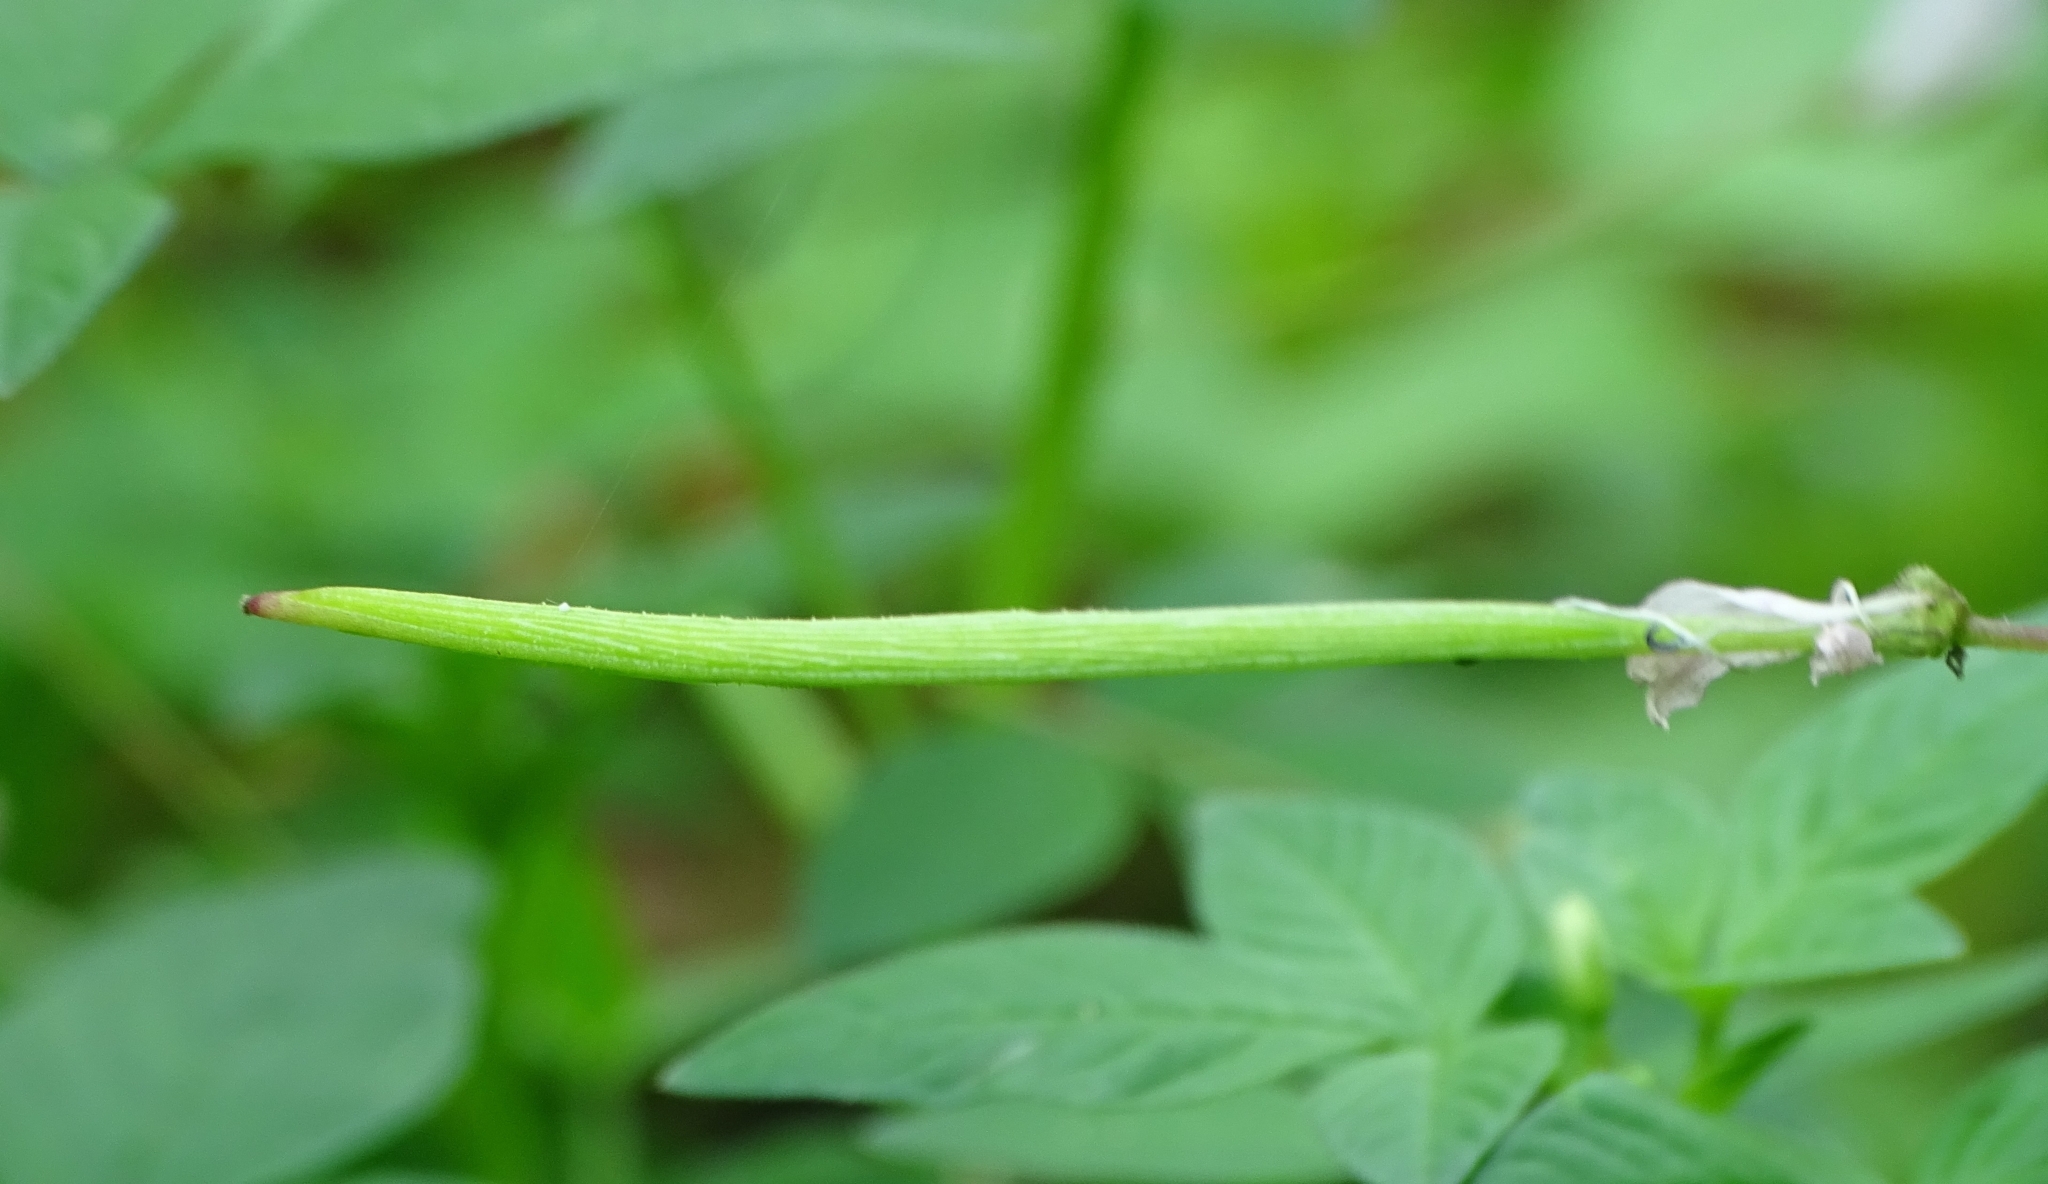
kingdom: Plantae
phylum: Tracheophyta
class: Magnoliopsida
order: Brassicales
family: Cleomaceae
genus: Sieruela
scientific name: Sieruela rutidosperma
